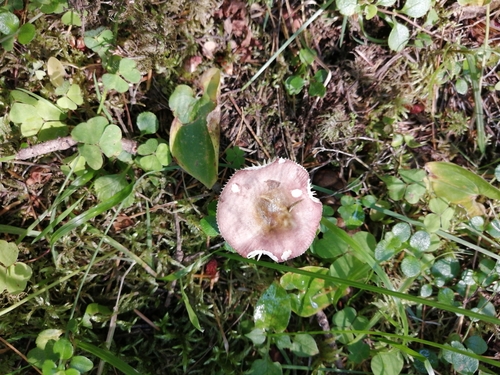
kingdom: Fungi
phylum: Basidiomycota
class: Agaricomycetes
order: Russulales
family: Russulaceae
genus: Russula
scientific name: Russula
